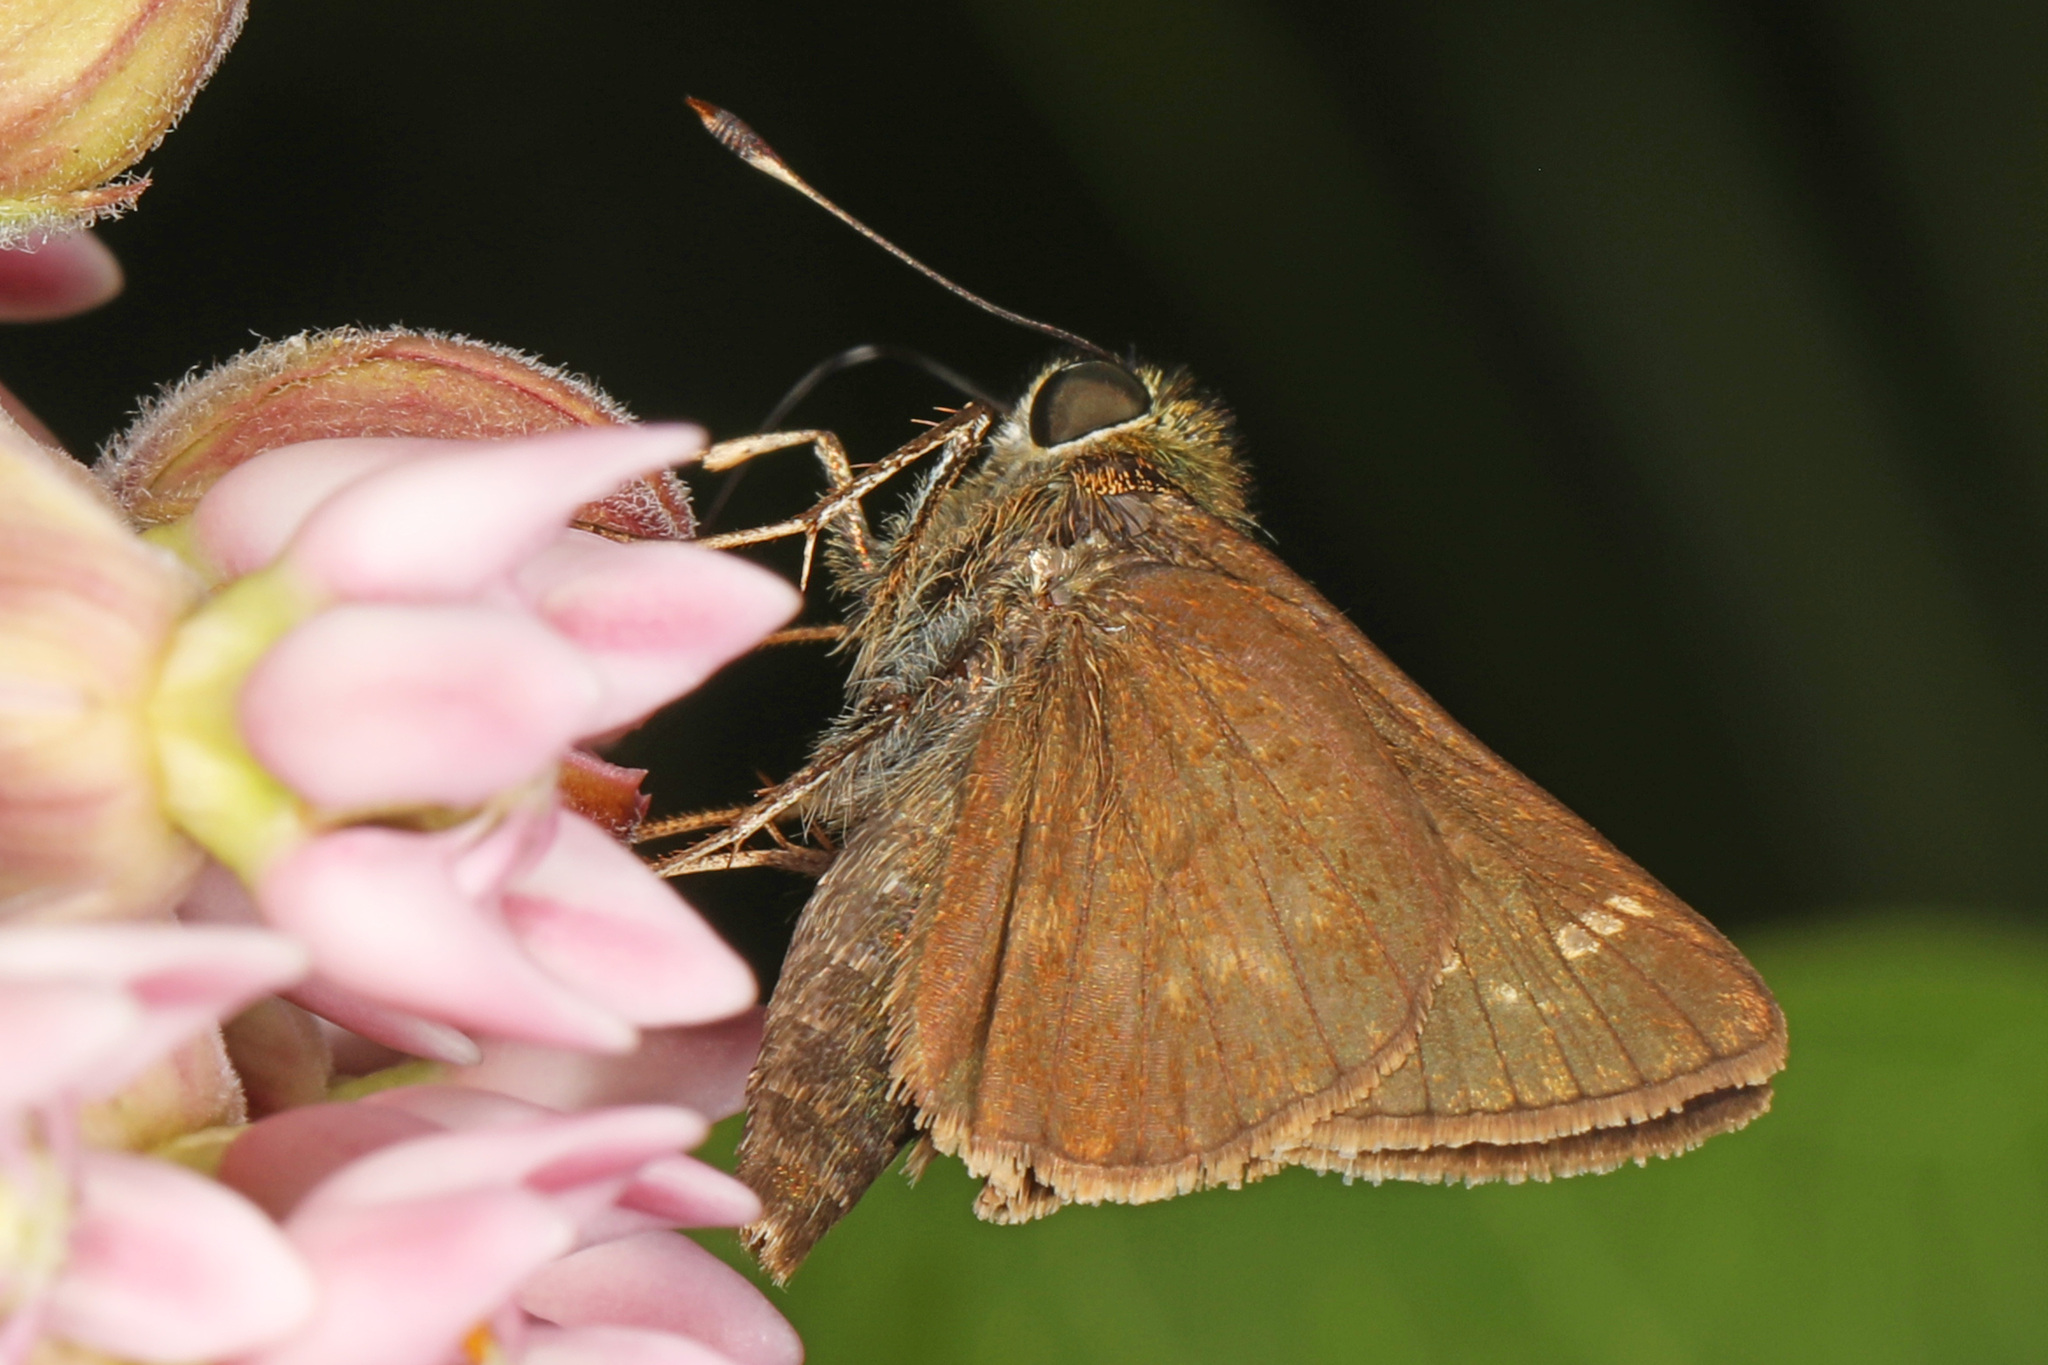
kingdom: Animalia
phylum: Arthropoda
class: Insecta
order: Lepidoptera
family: Hesperiidae
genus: Vernia
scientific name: Vernia verna
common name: Little glassywing
